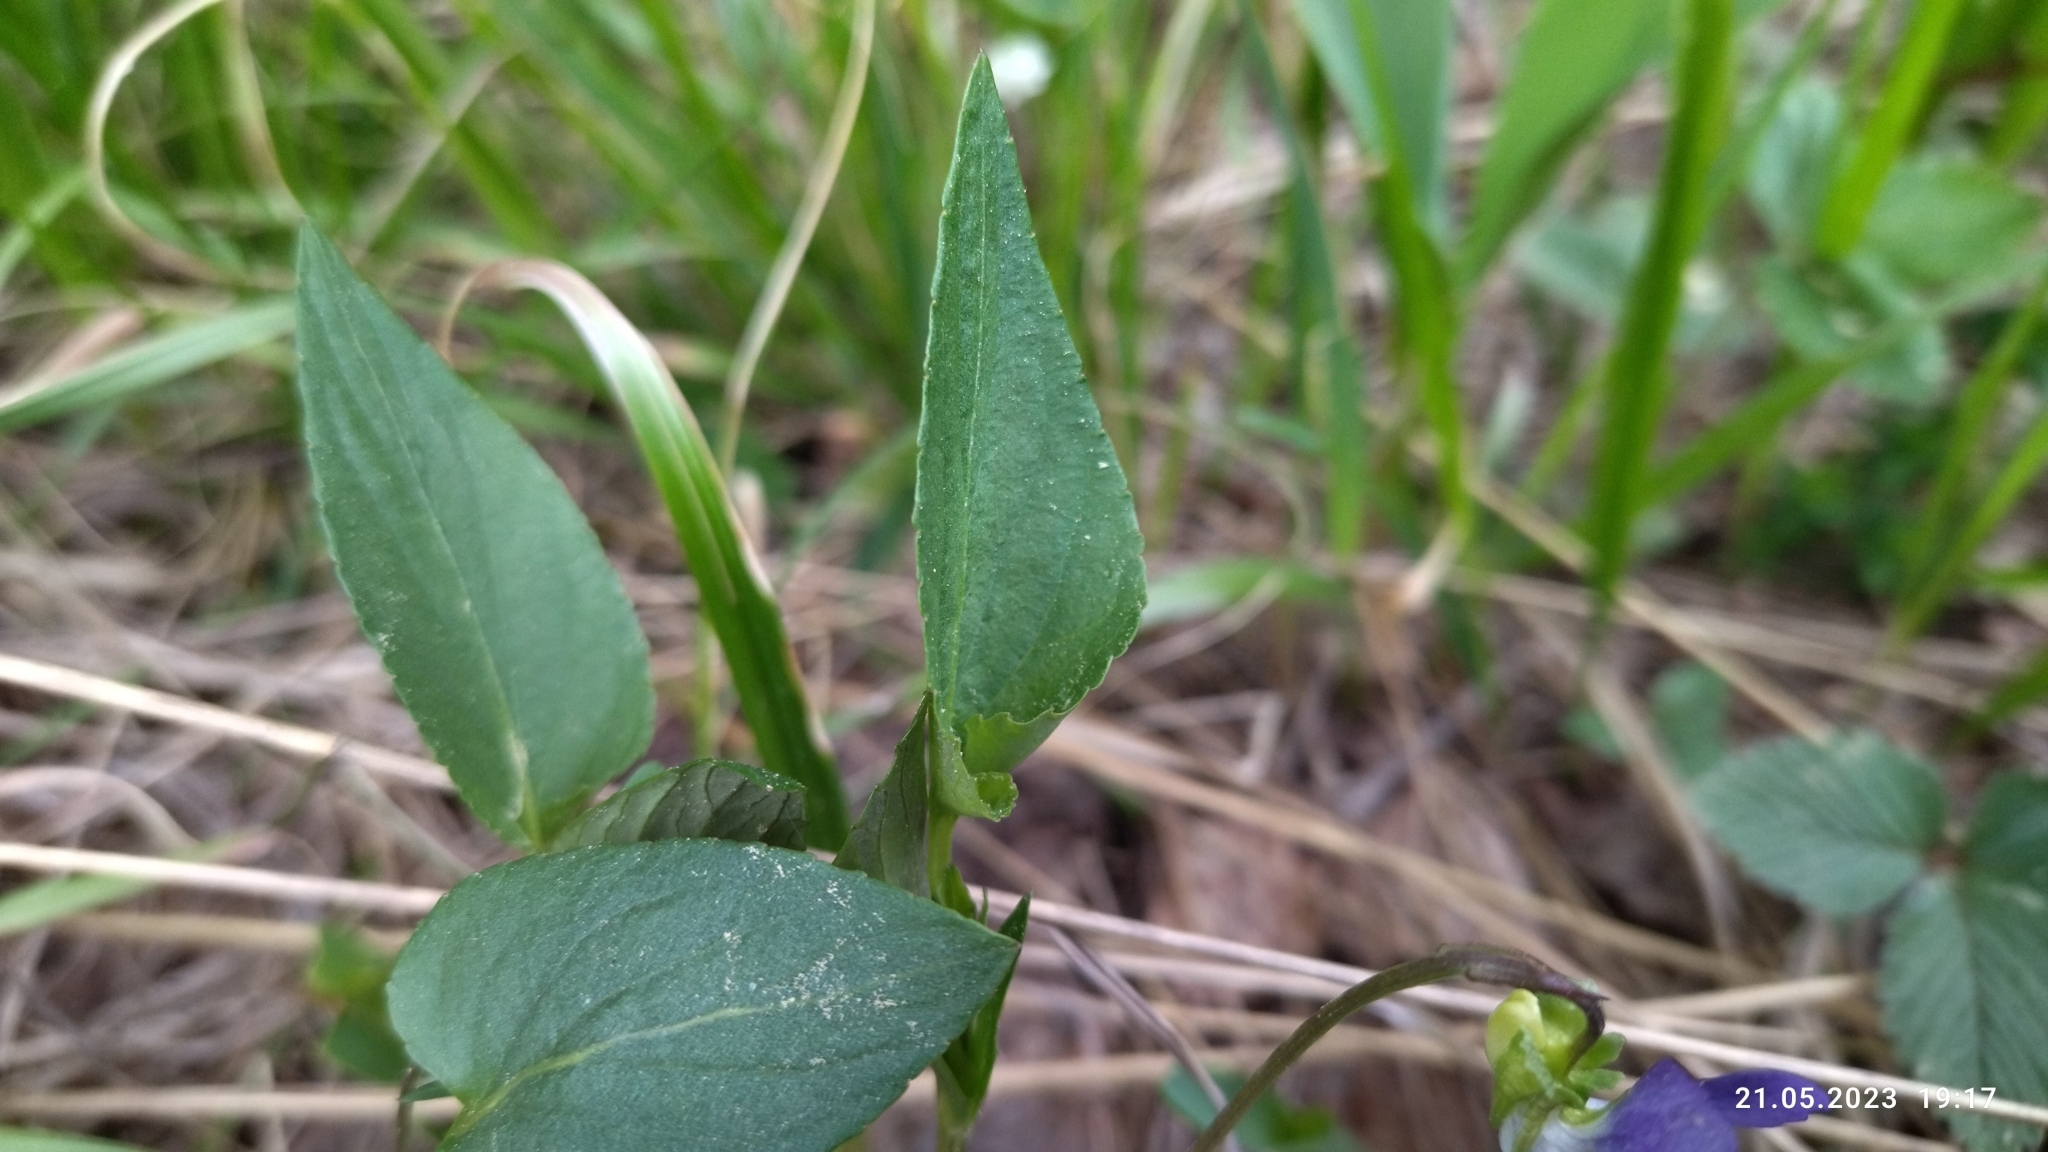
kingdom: Plantae
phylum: Tracheophyta
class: Magnoliopsida
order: Malpighiales
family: Violaceae
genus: Viola
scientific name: Viola
